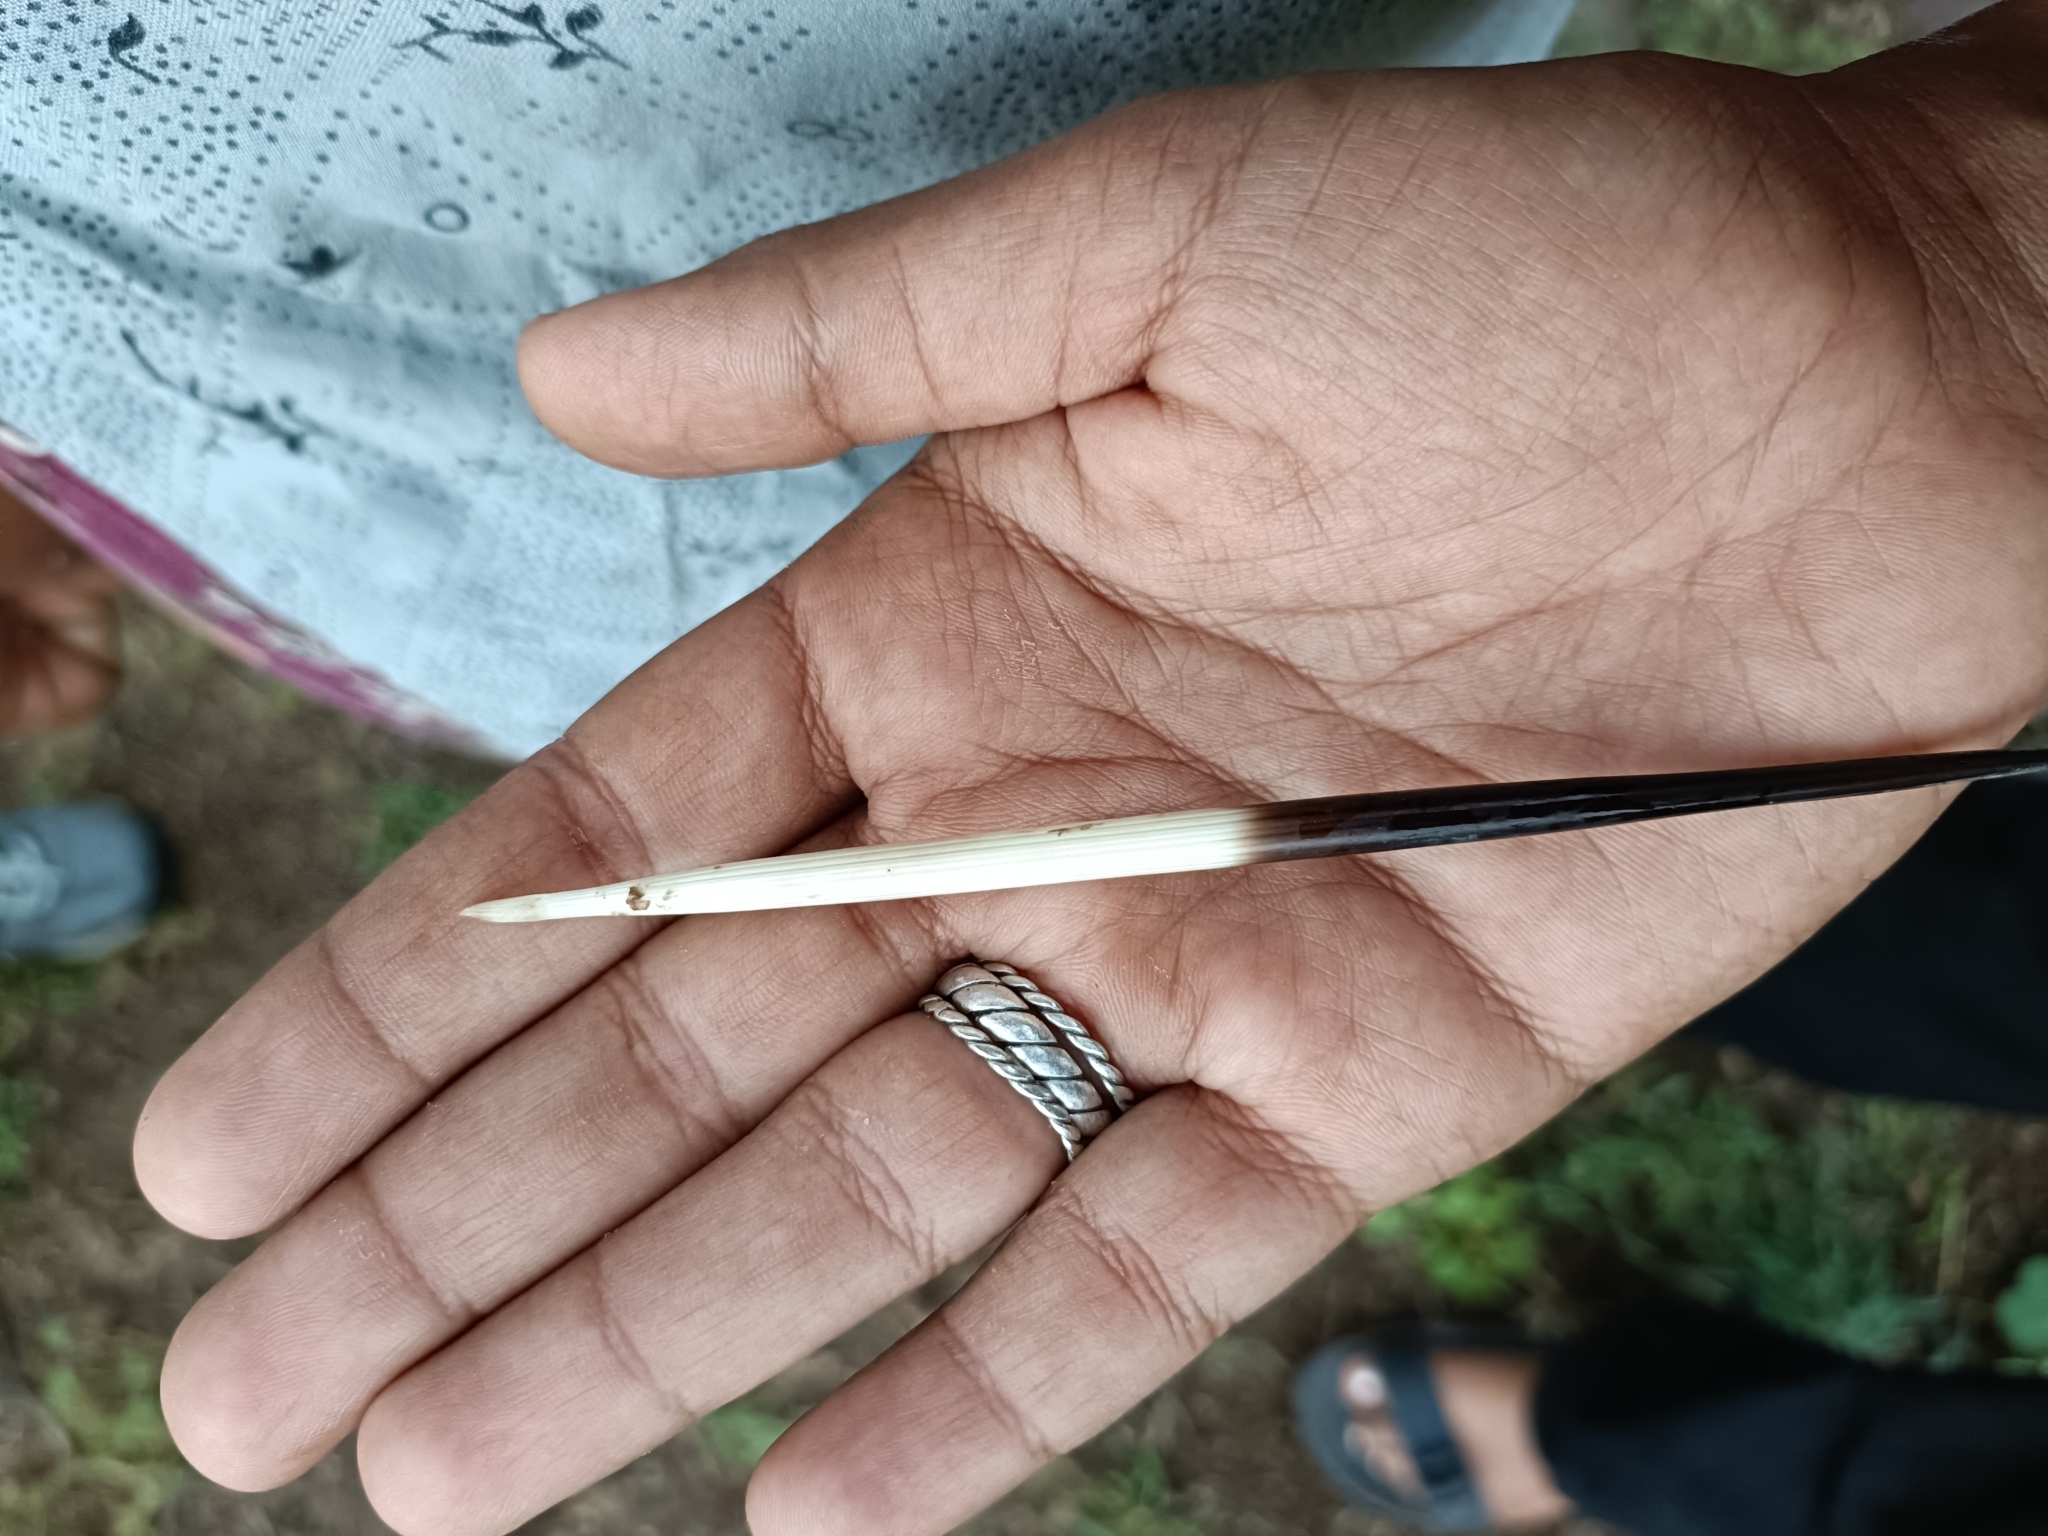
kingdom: Animalia
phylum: Chordata
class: Mammalia
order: Rodentia
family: Hystricidae
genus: Hystrix
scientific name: Hystrix indica
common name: Indian crested porcupine
